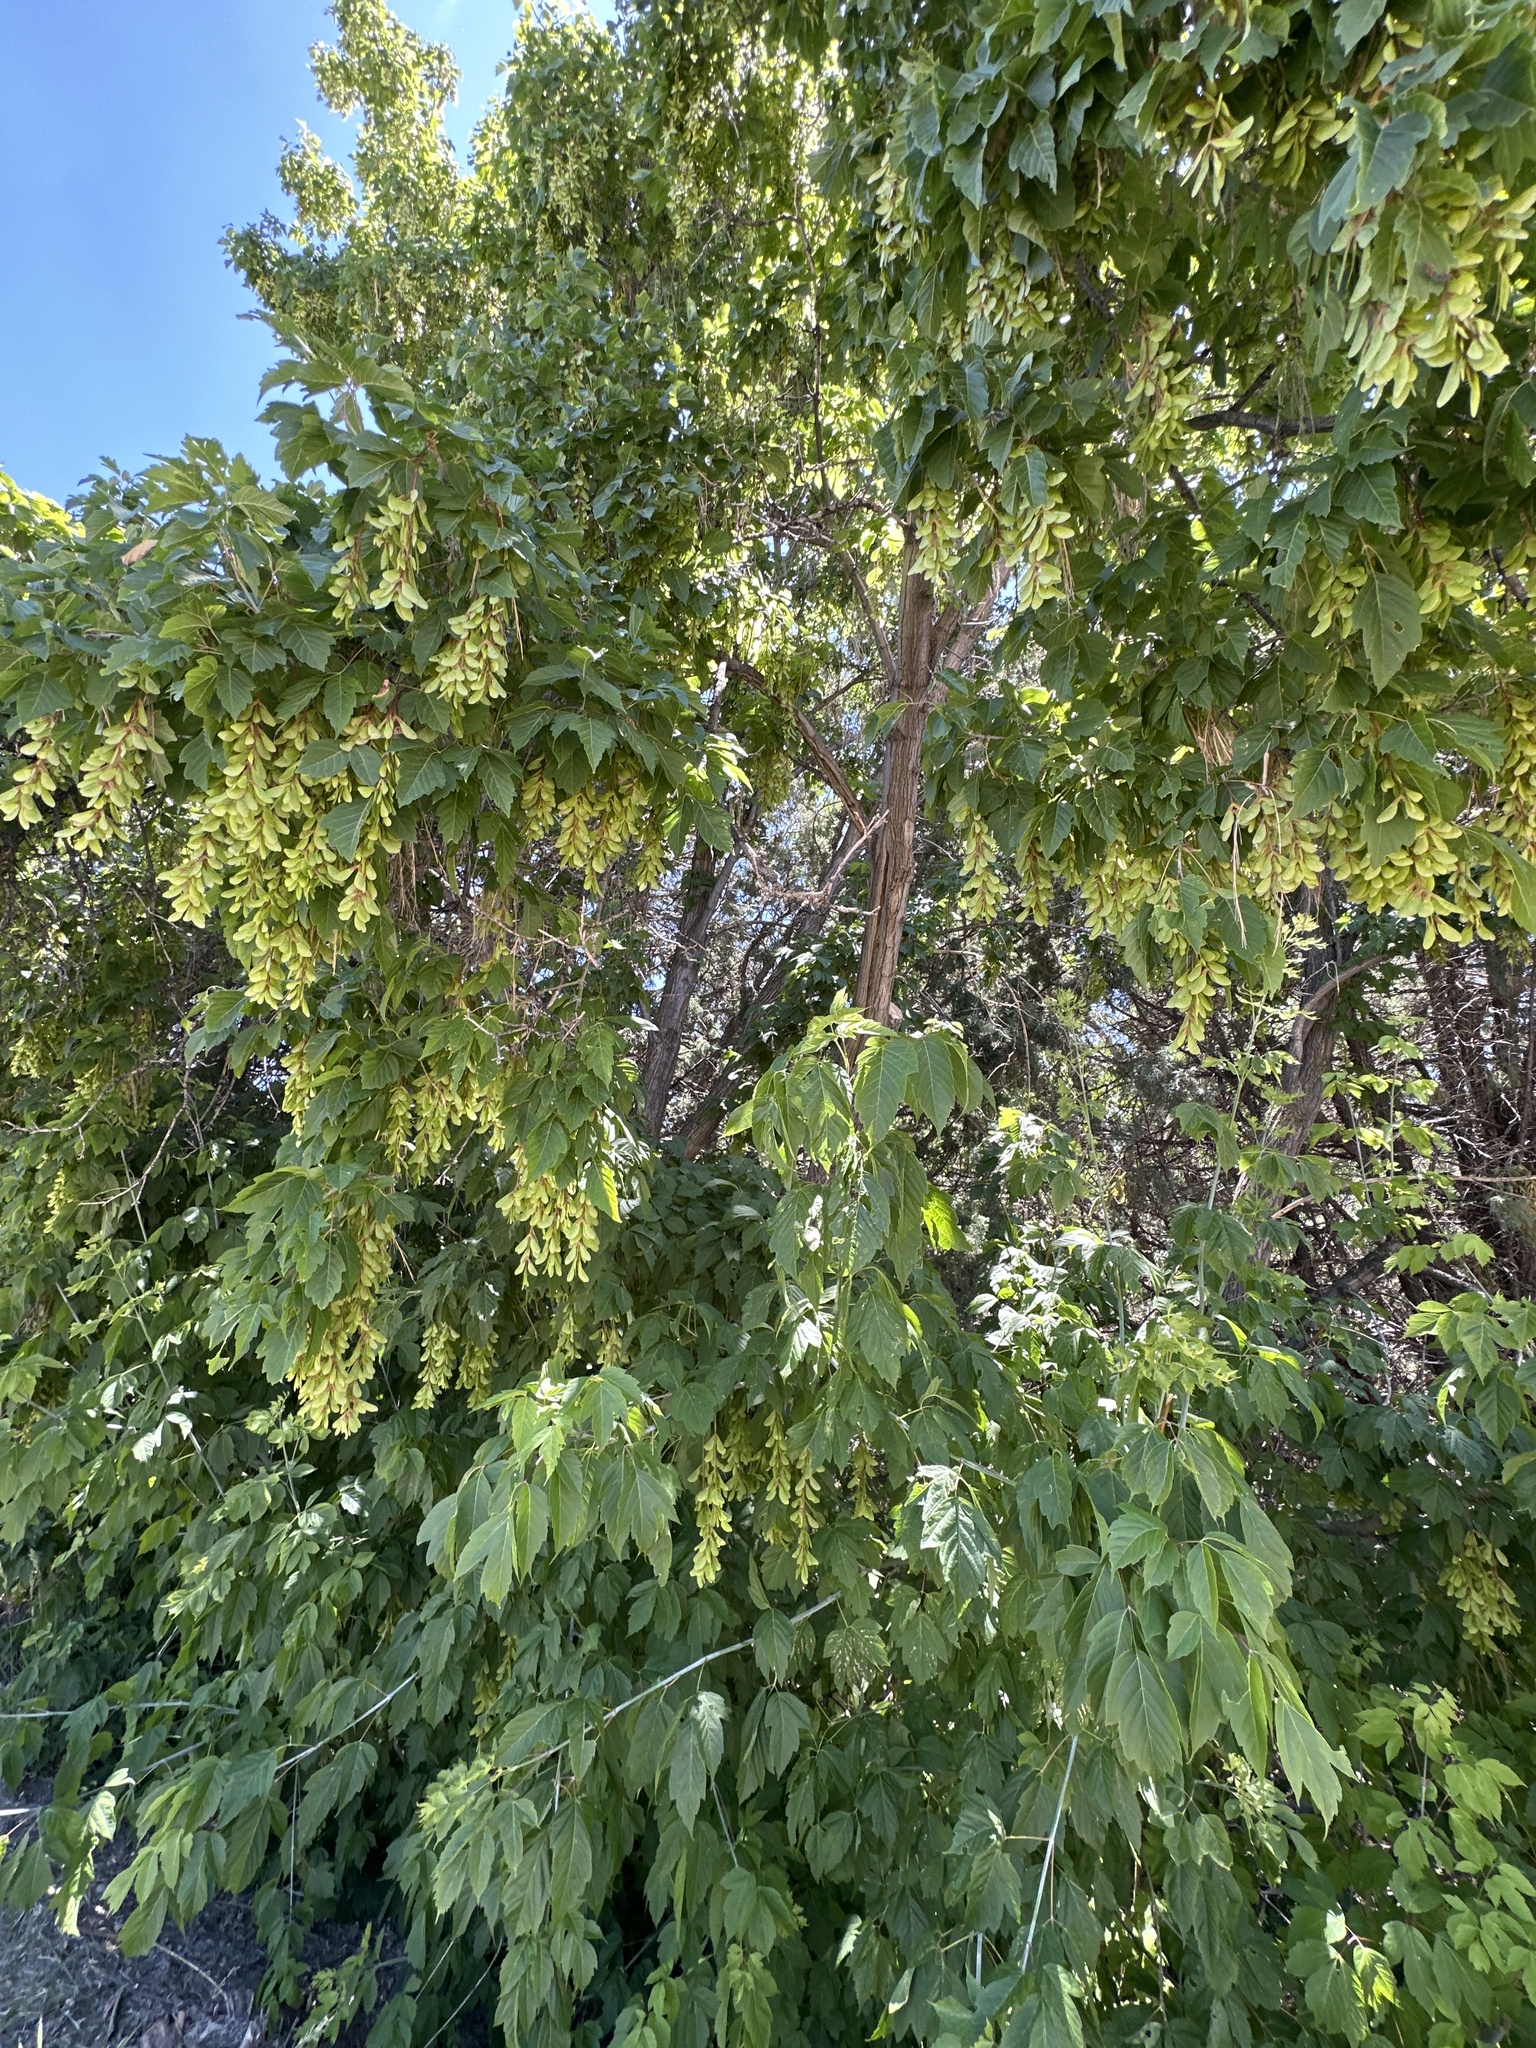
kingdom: Plantae
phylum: Tracheophyta
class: Magnoliopsida
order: Sapindales
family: Sapindaceae
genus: Acer
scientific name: Acer negundo
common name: Ashleaf maple
